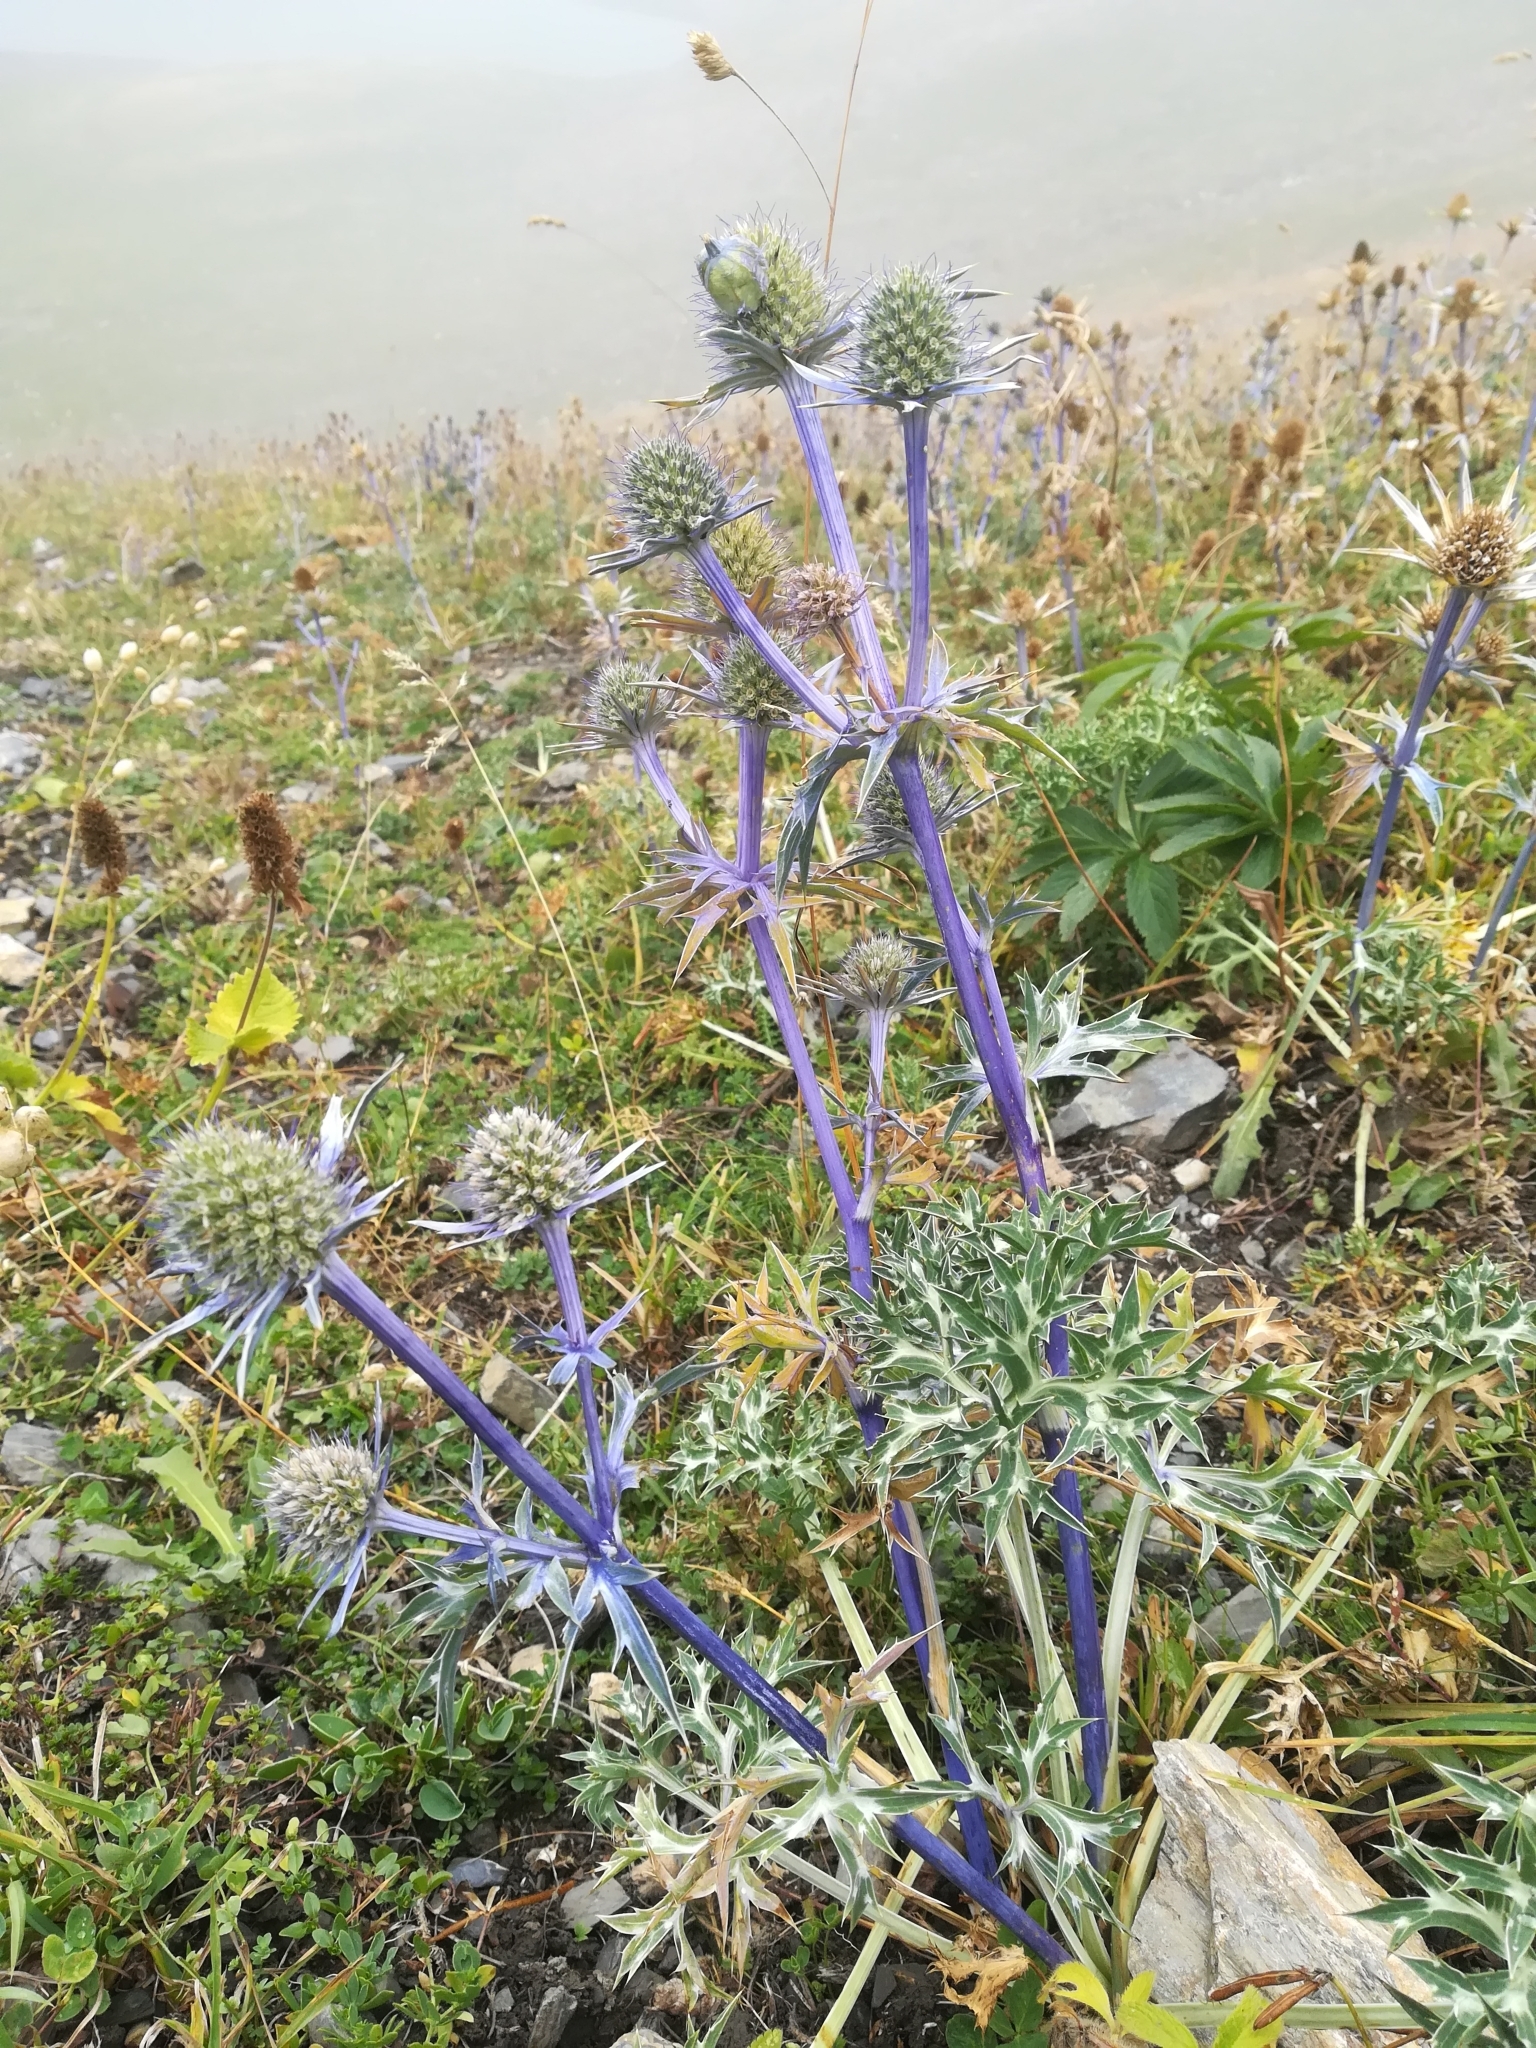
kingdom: Plantae
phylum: Tracheophyta
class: Magnoliopsida
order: Apiales
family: Apiaceae
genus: Eryngium
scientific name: Eryngium bourgatii
